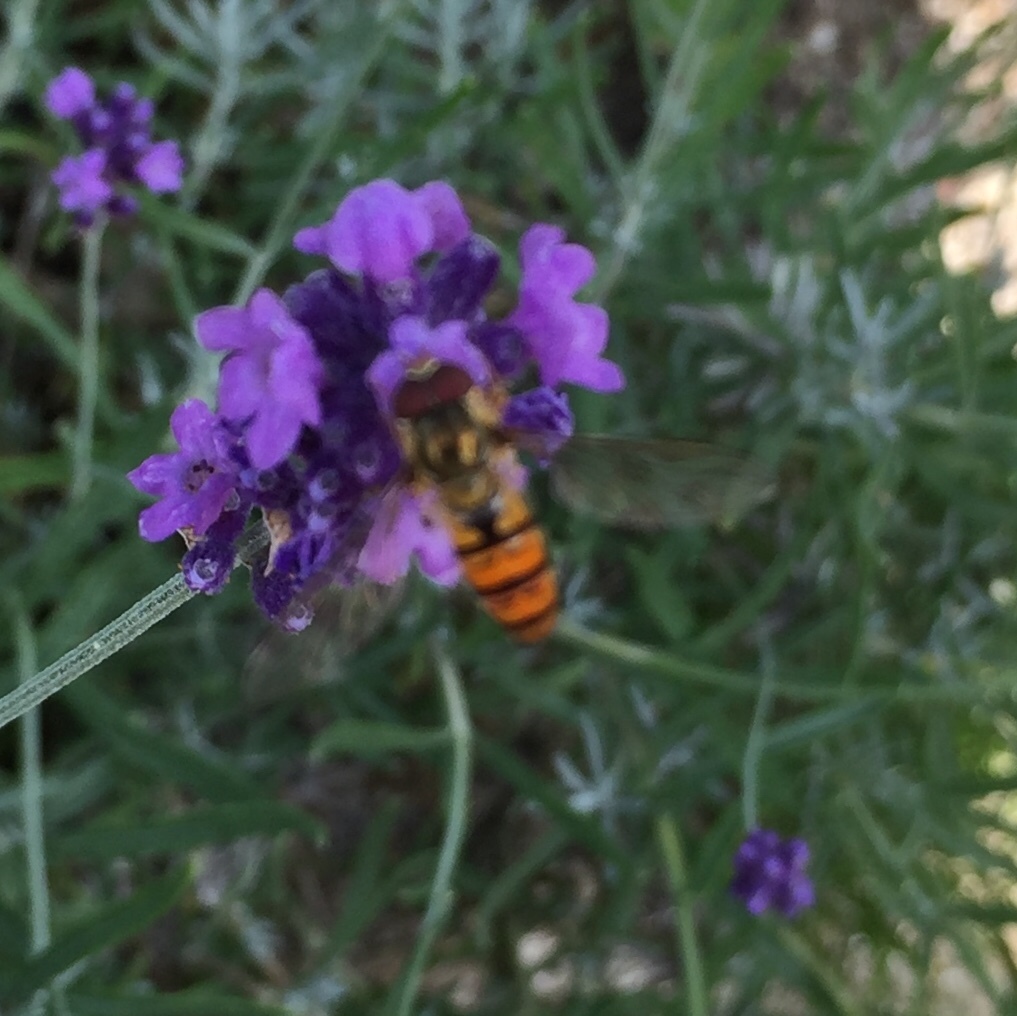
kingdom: Animalia
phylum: Arthropoda
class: Insecta
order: Diptera
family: Syrphidae
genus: Episyrphus
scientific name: Episyrphus balteatus
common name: Marmalade hoverfly
